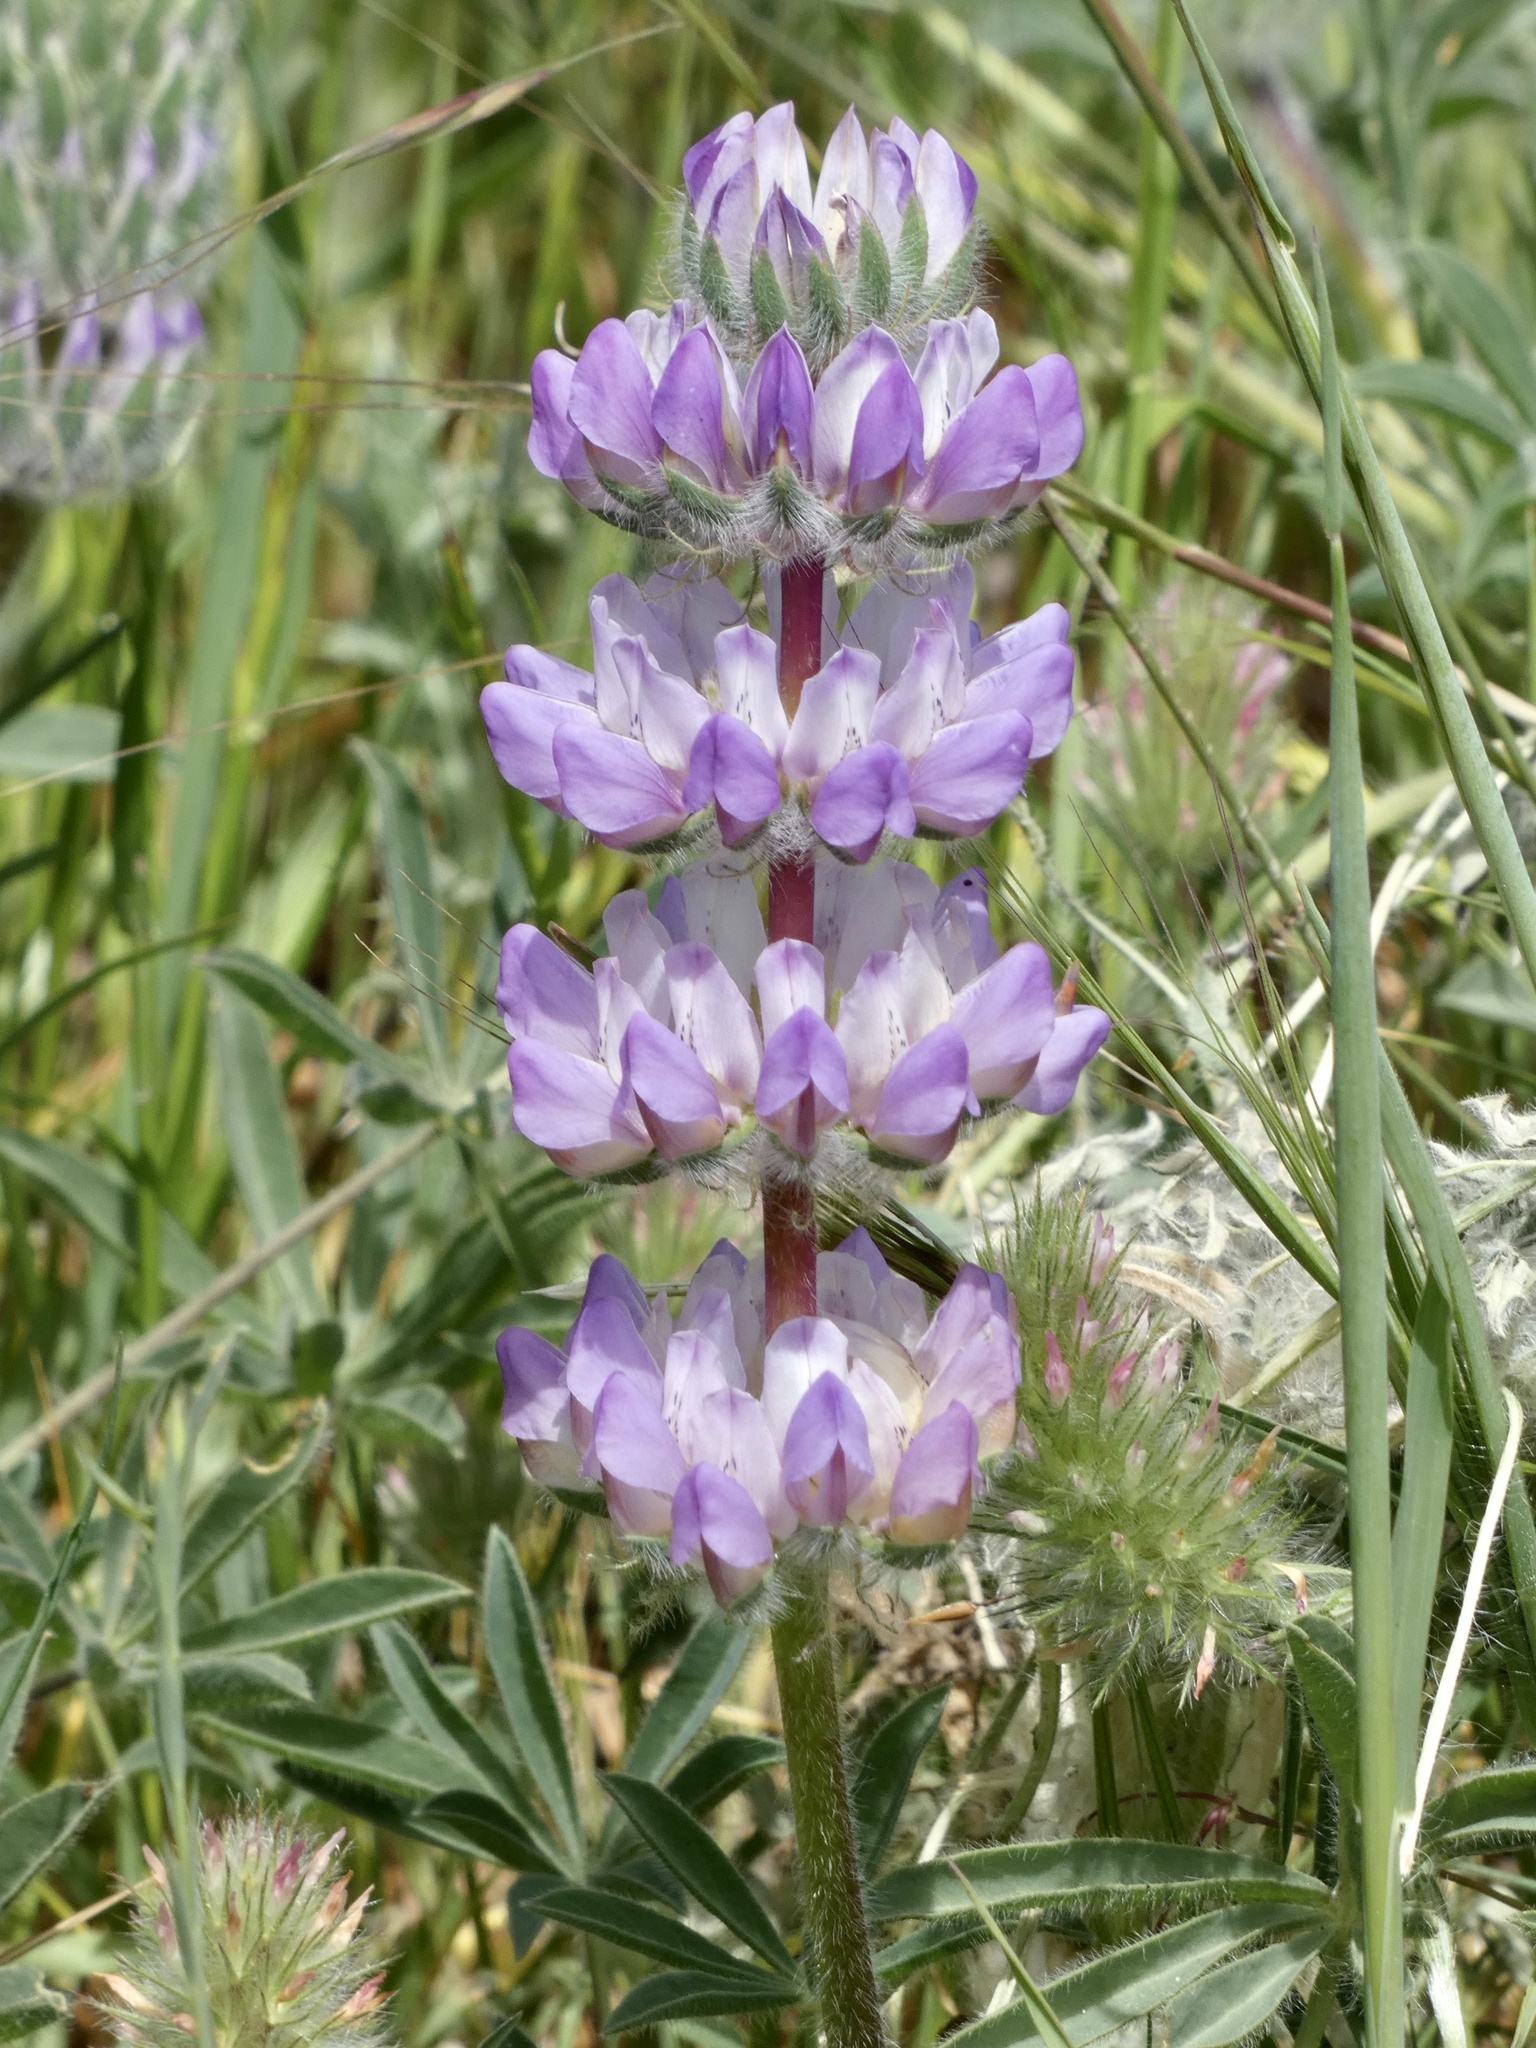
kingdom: Plantae
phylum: Tracheophyta
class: Magnoliopsida
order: Fabales
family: Fabaceae
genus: Lupinus
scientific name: Lupinus microcarpus
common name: Chick lupine
